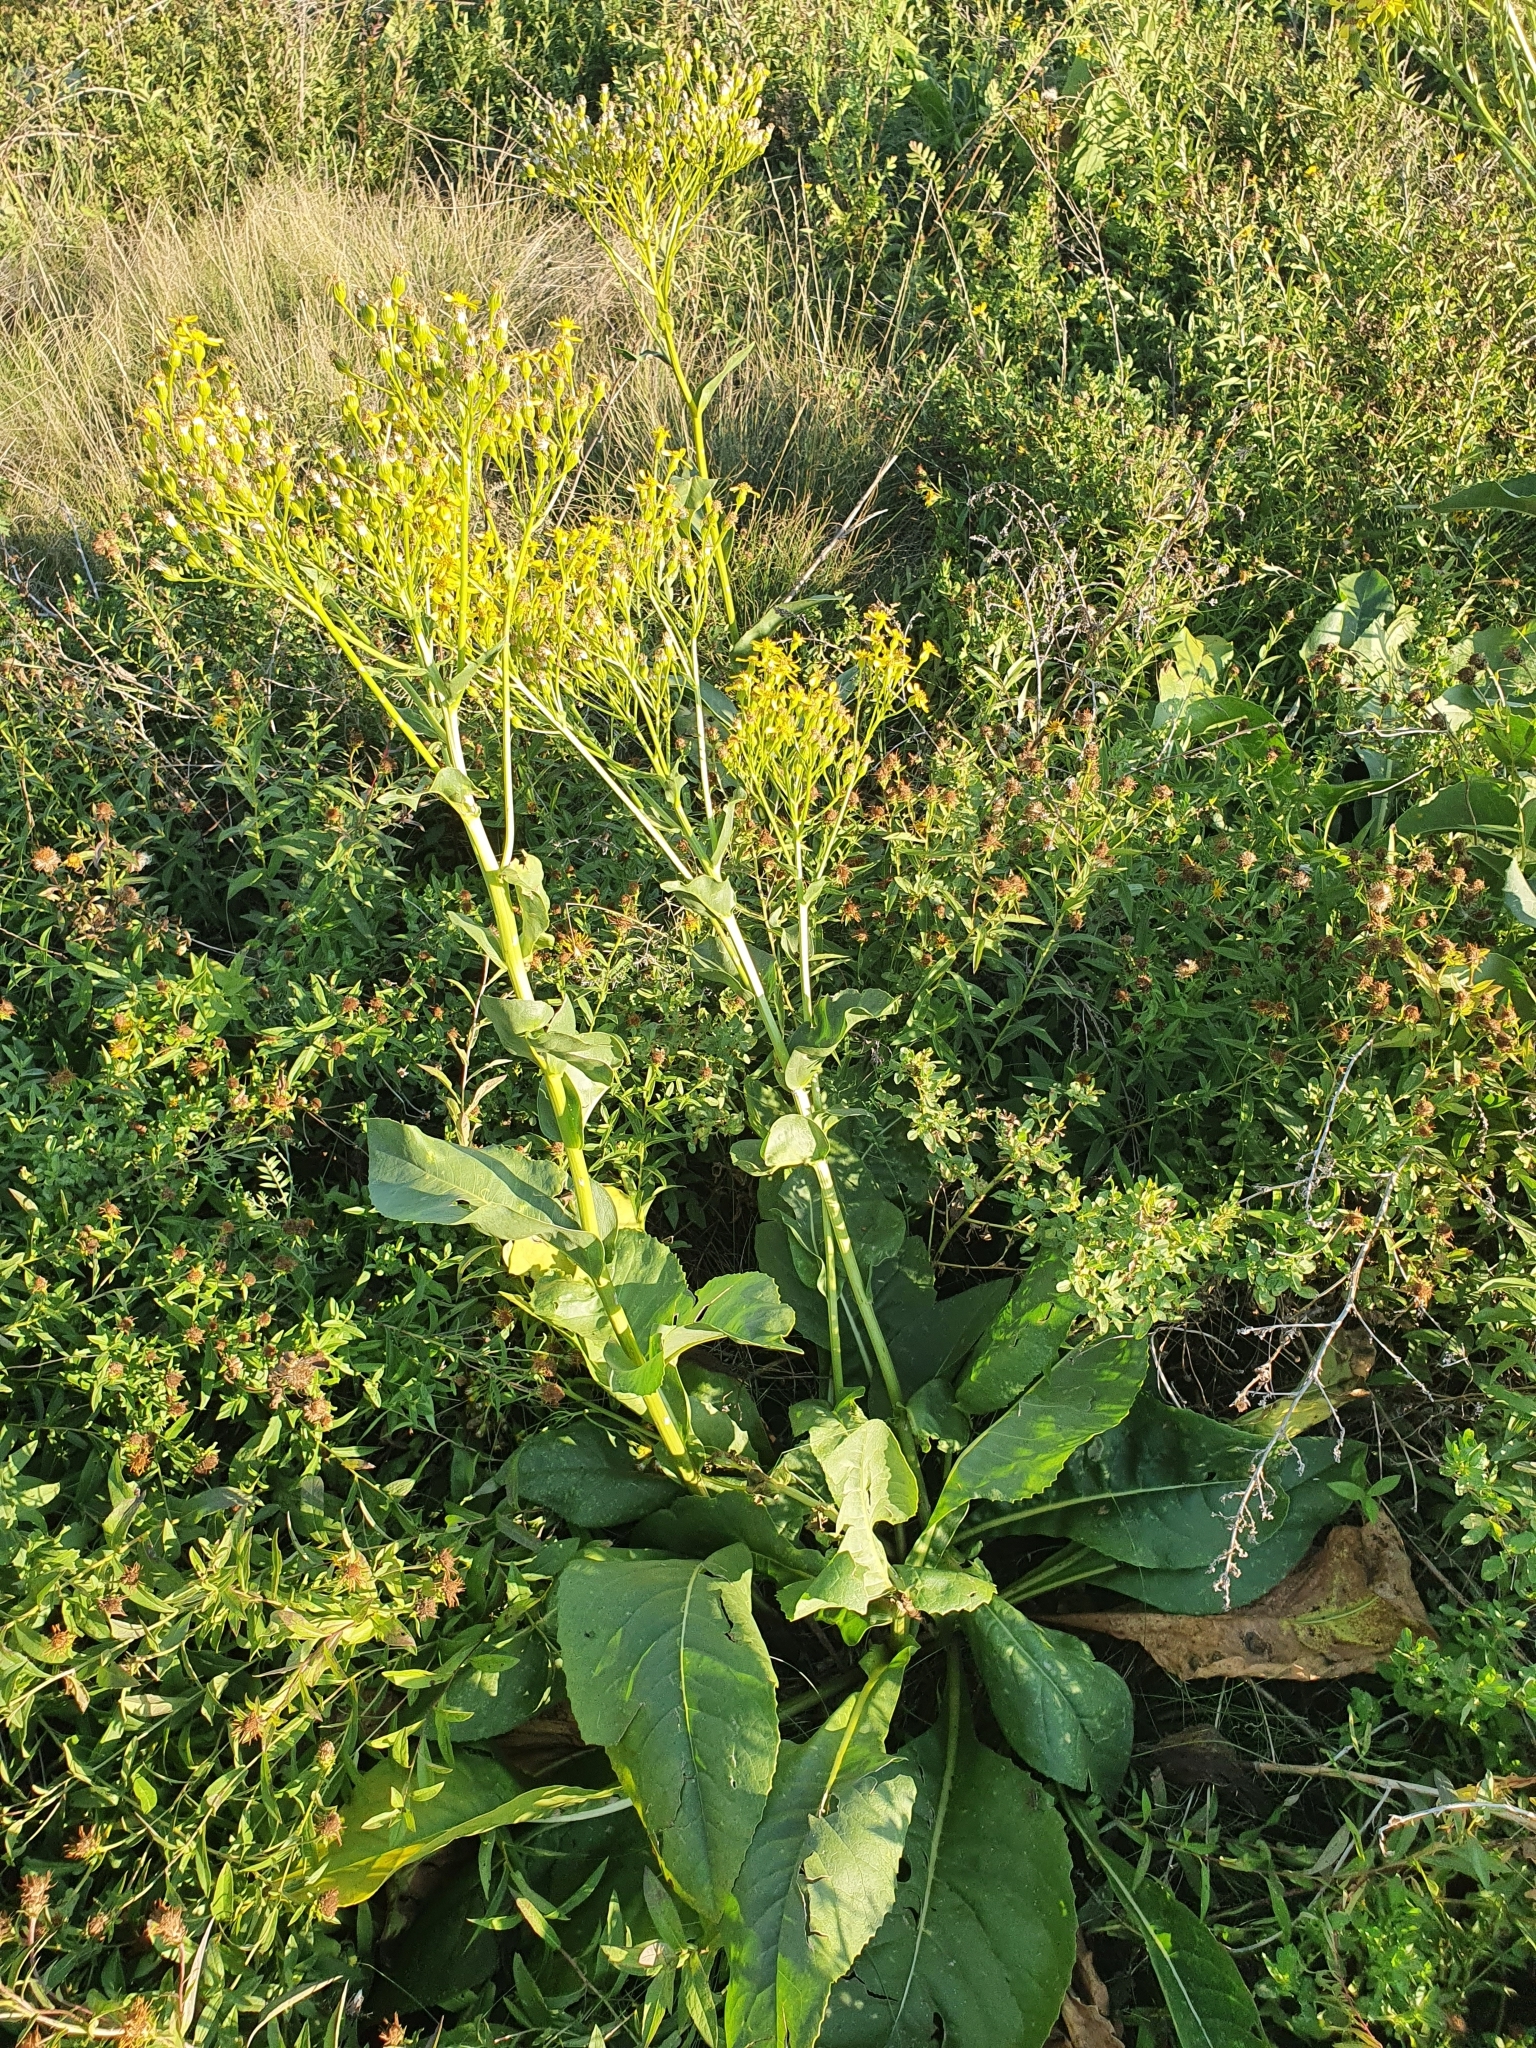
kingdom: Plantae
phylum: Tracheophyta
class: Magnoliopsida
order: Asterales
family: Asteraceae
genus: Senecio
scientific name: Senecio doria
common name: Golden ragwort
